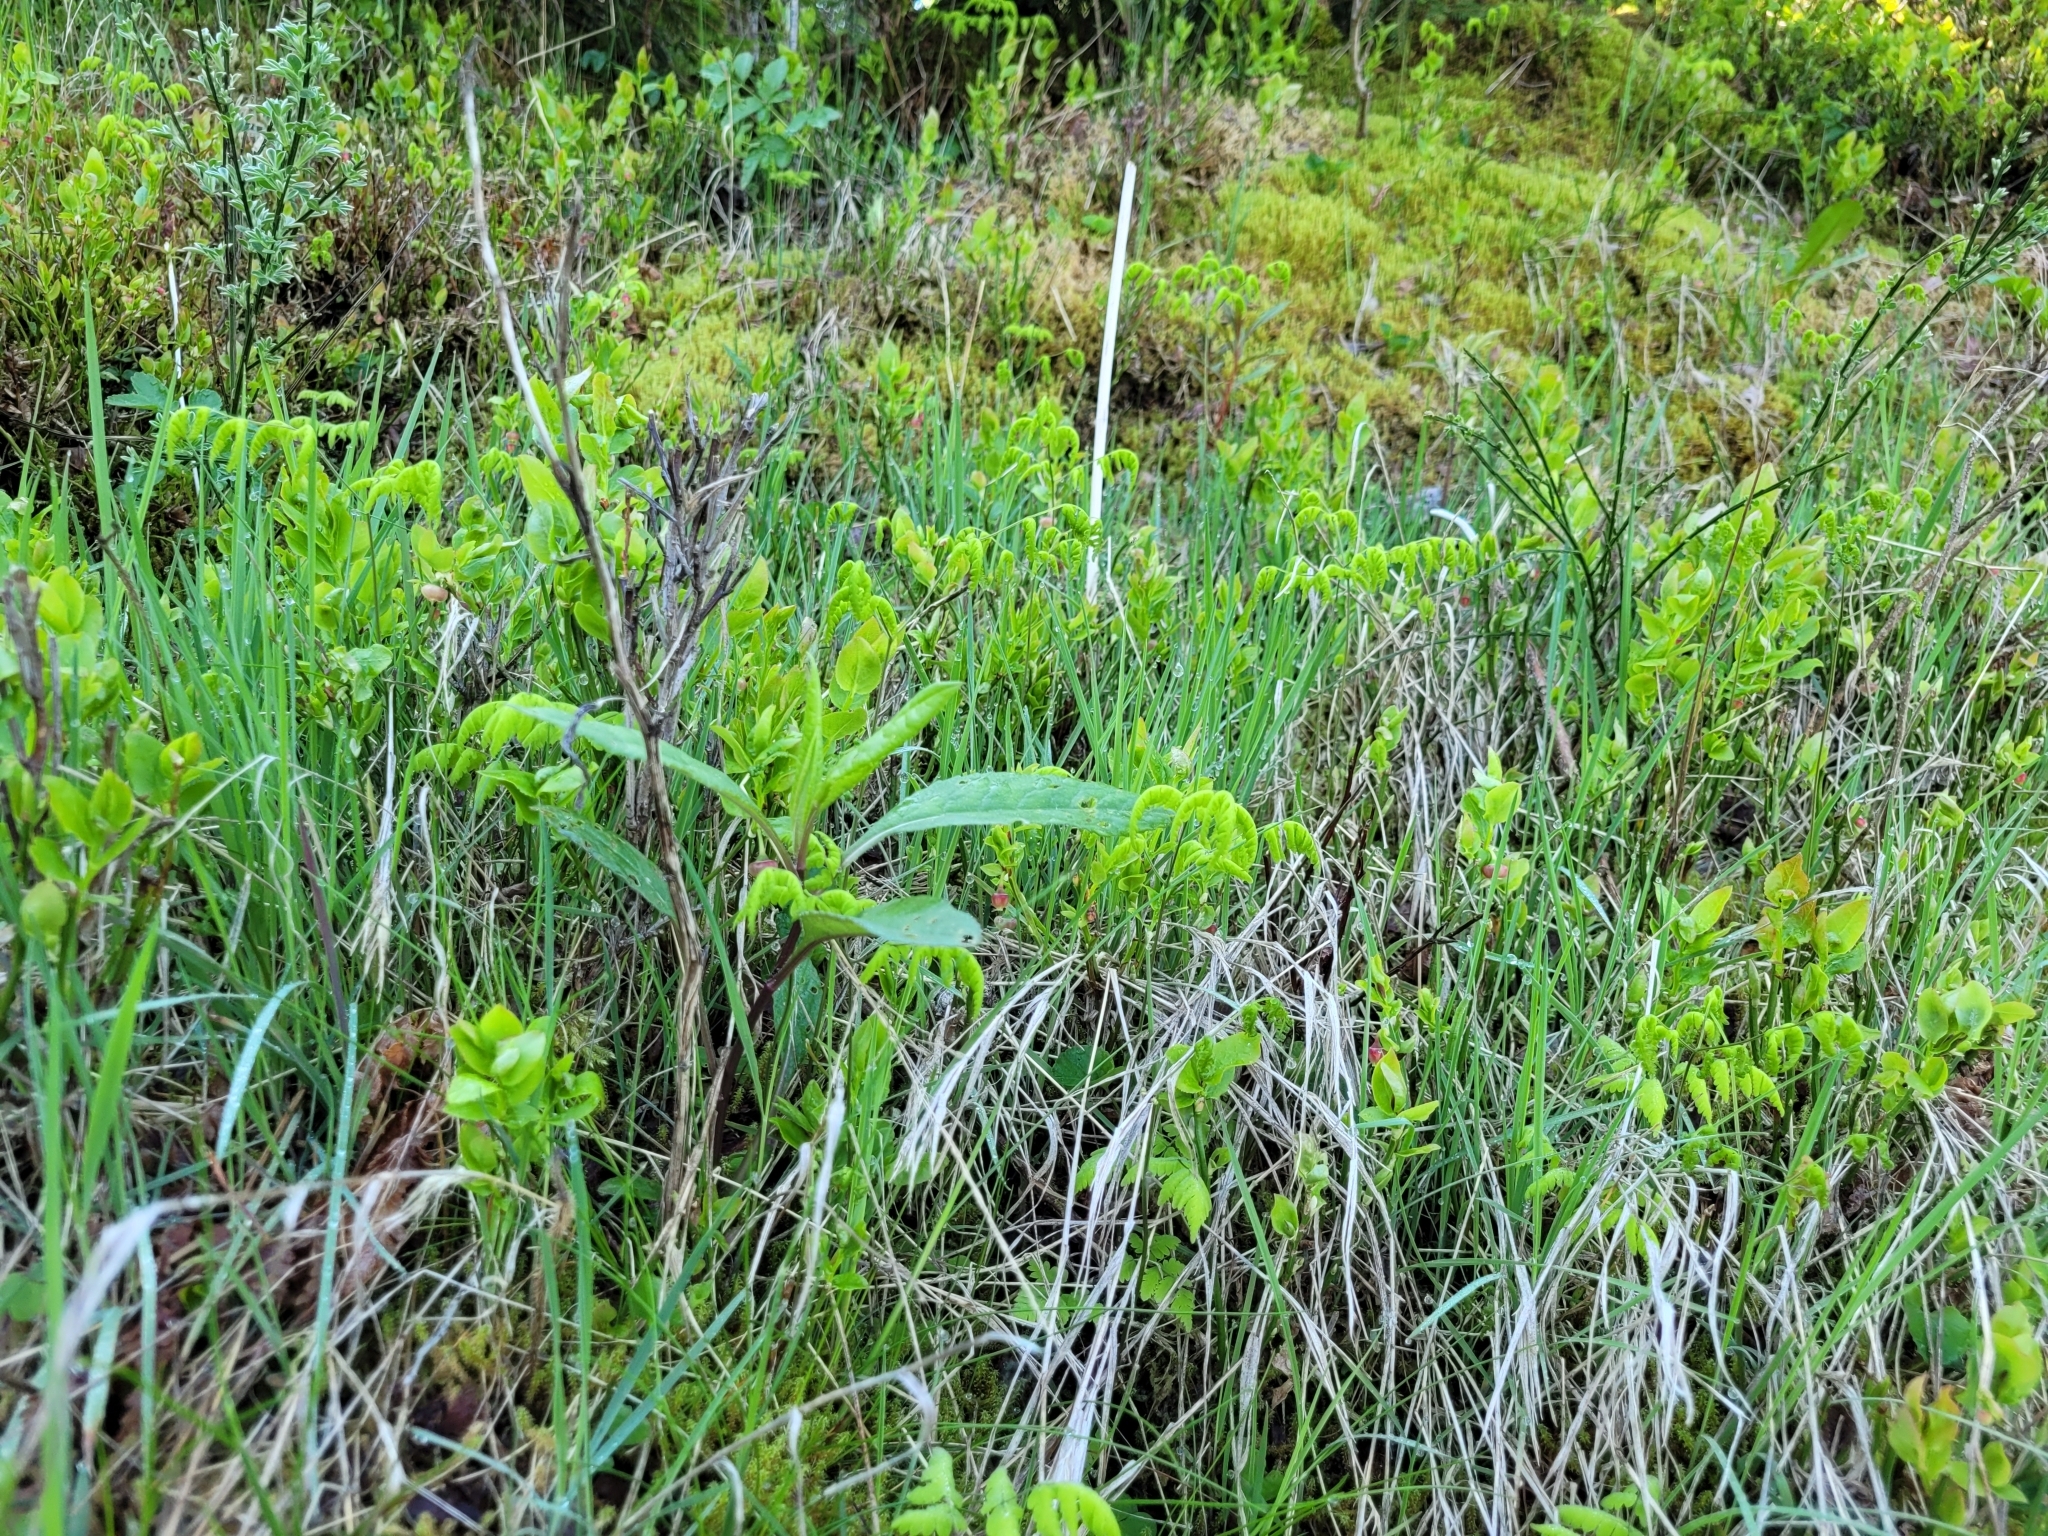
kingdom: Plantae
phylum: Tracheophyta
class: Polypodiopsida
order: Polypodiales
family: Cystopteridaceae
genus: Gymnocarpium
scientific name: Gymnocarpium dryopteris
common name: Oak fern
